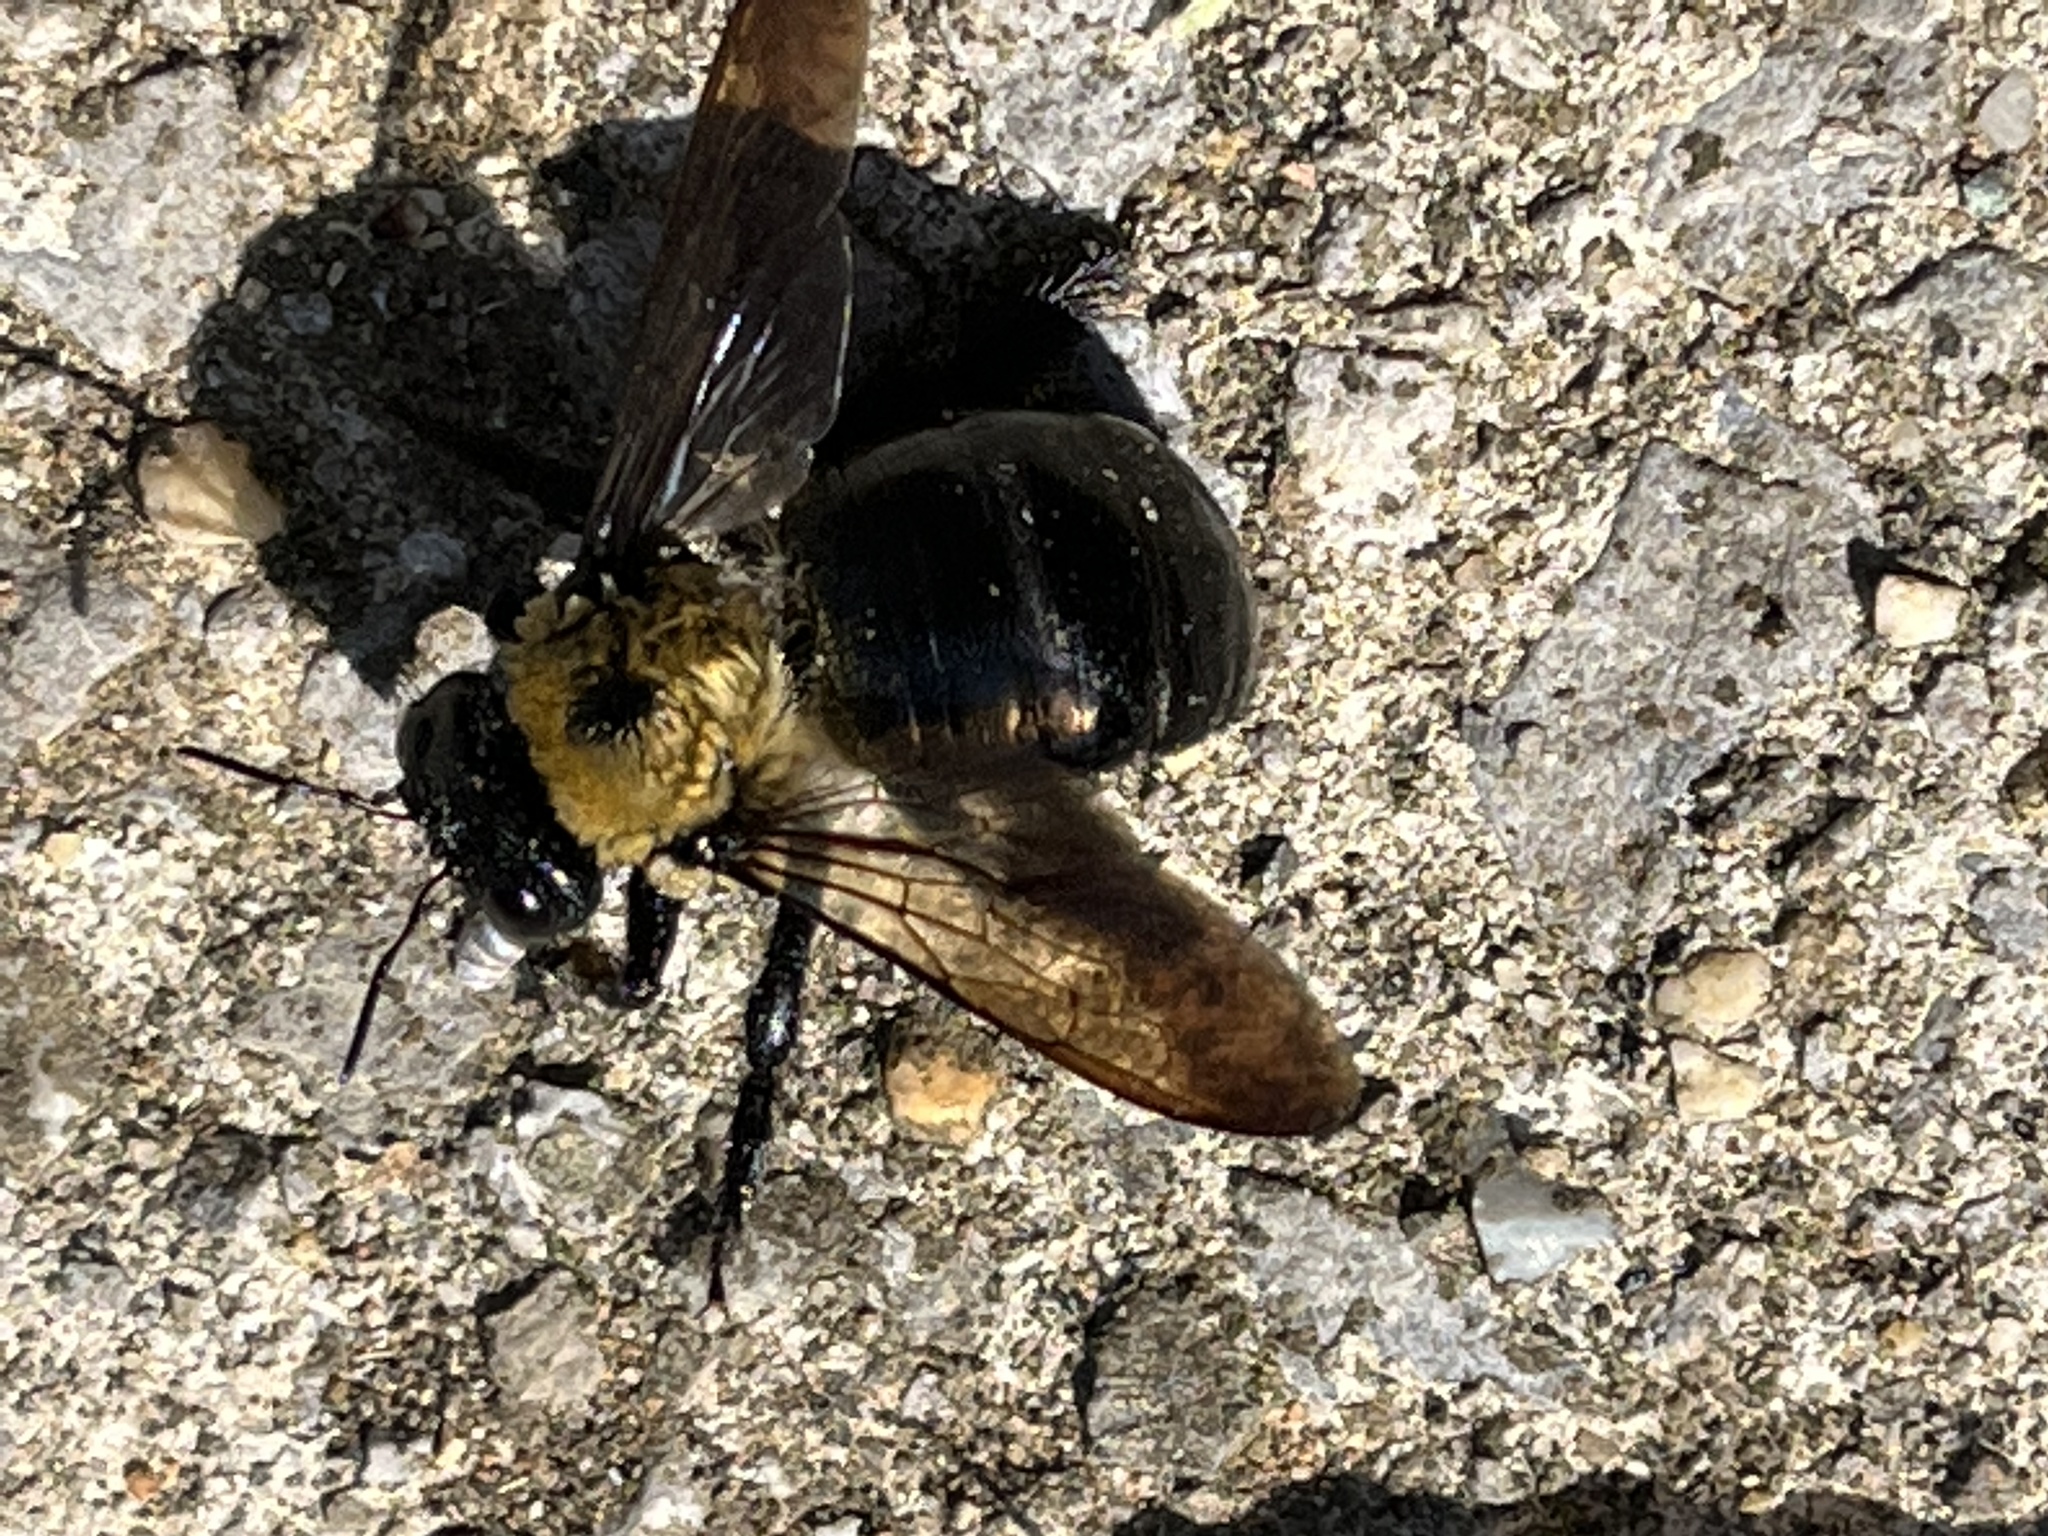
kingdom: Animalia
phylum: Arthropoda
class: Insecta
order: Hymenoptera
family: Apidae
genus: Xylocopa
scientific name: Xylocopa virginica
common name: Carpenter bee
